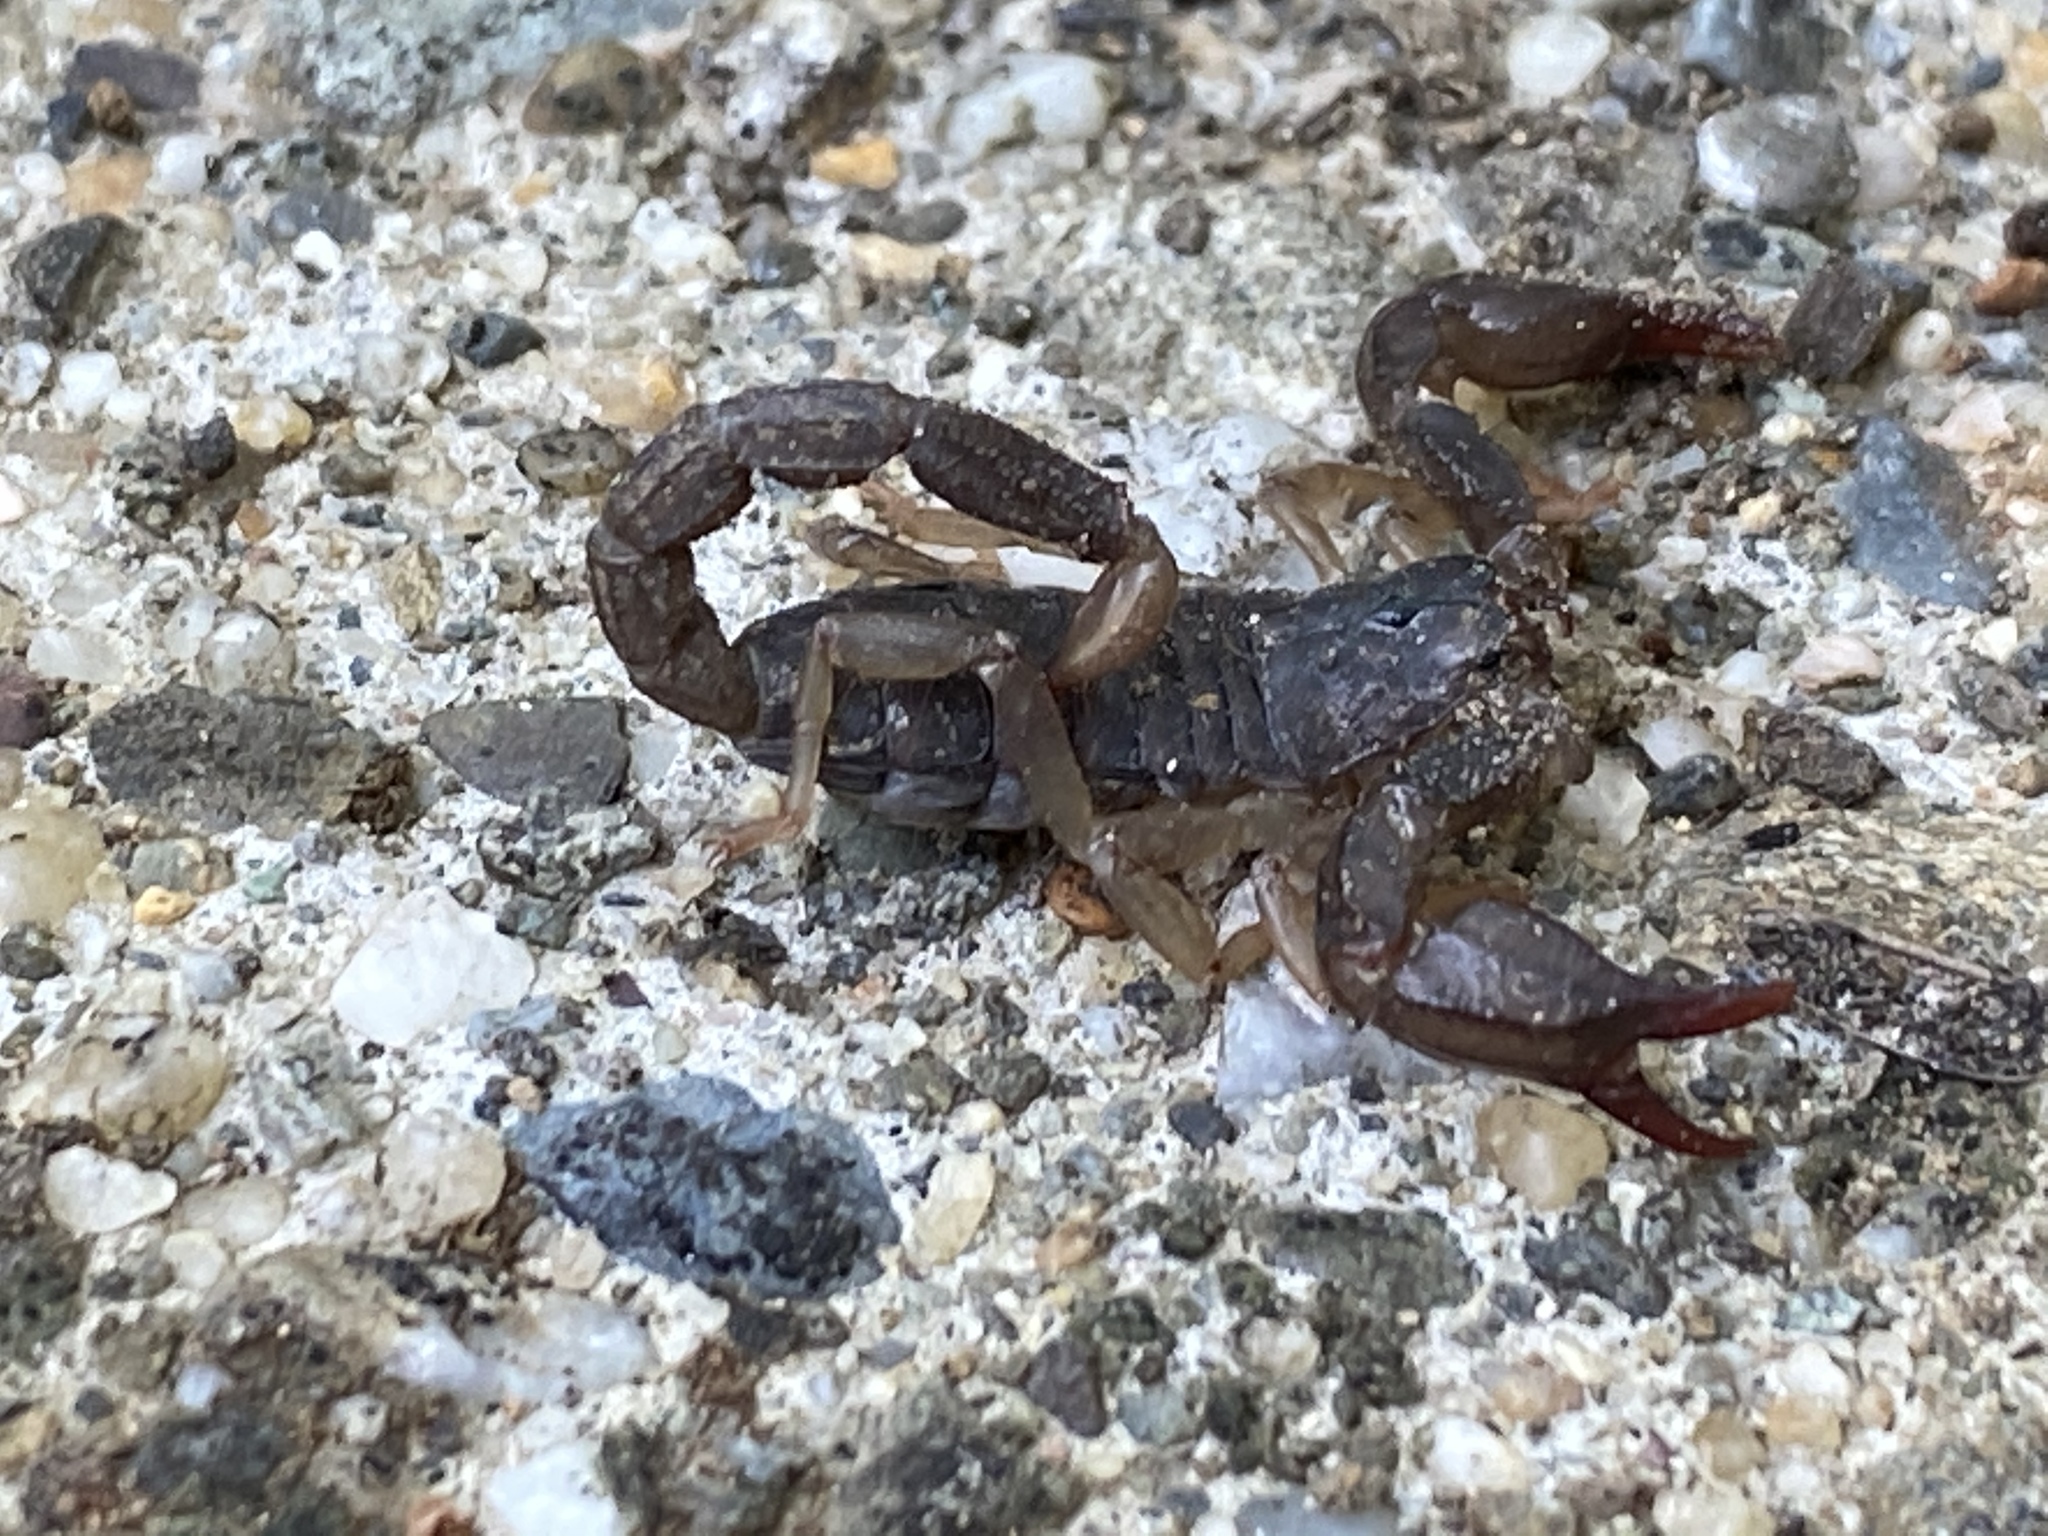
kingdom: Animalia
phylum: Arthropoda
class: Arachnida
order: Scorpiones
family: Chactidae
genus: Uroctonus
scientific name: Uroctonus mordax
